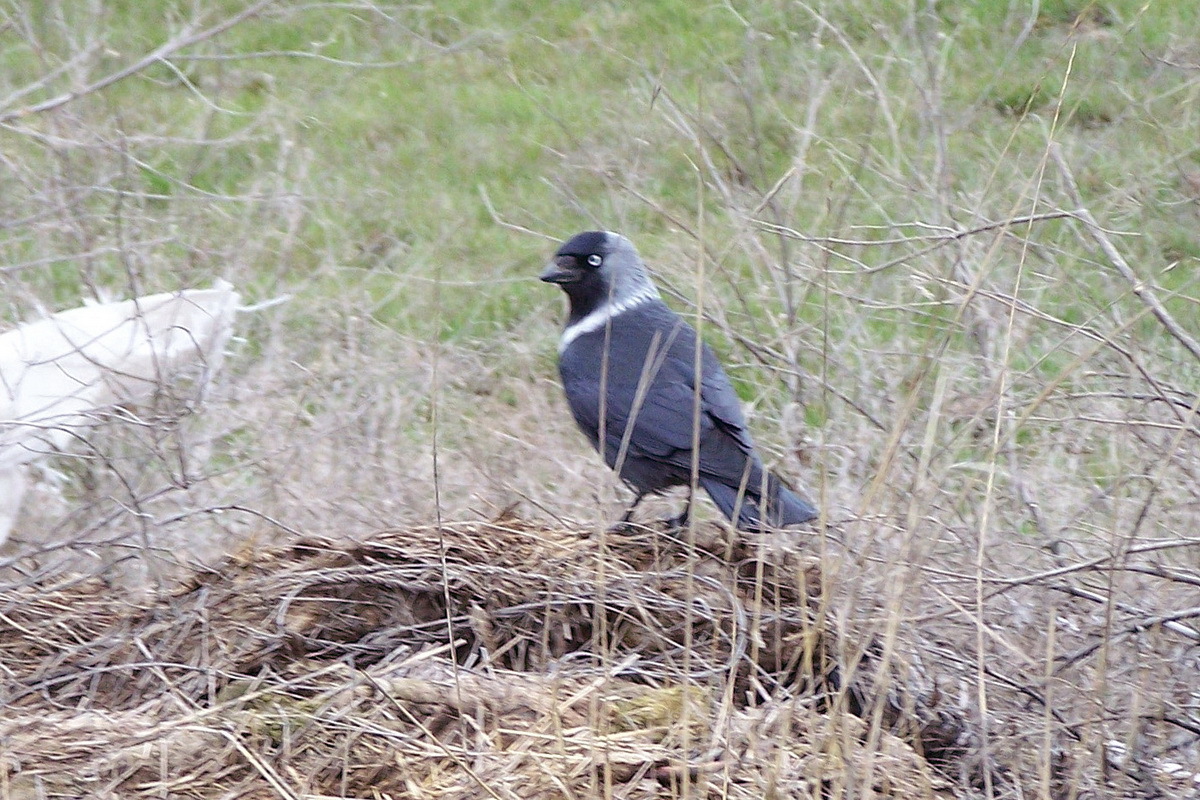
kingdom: Animalia
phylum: Chordata
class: Aves
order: Passeriformes
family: Corvidae
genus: Coloeus
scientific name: Coloeus monedula
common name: Western jackdaw
